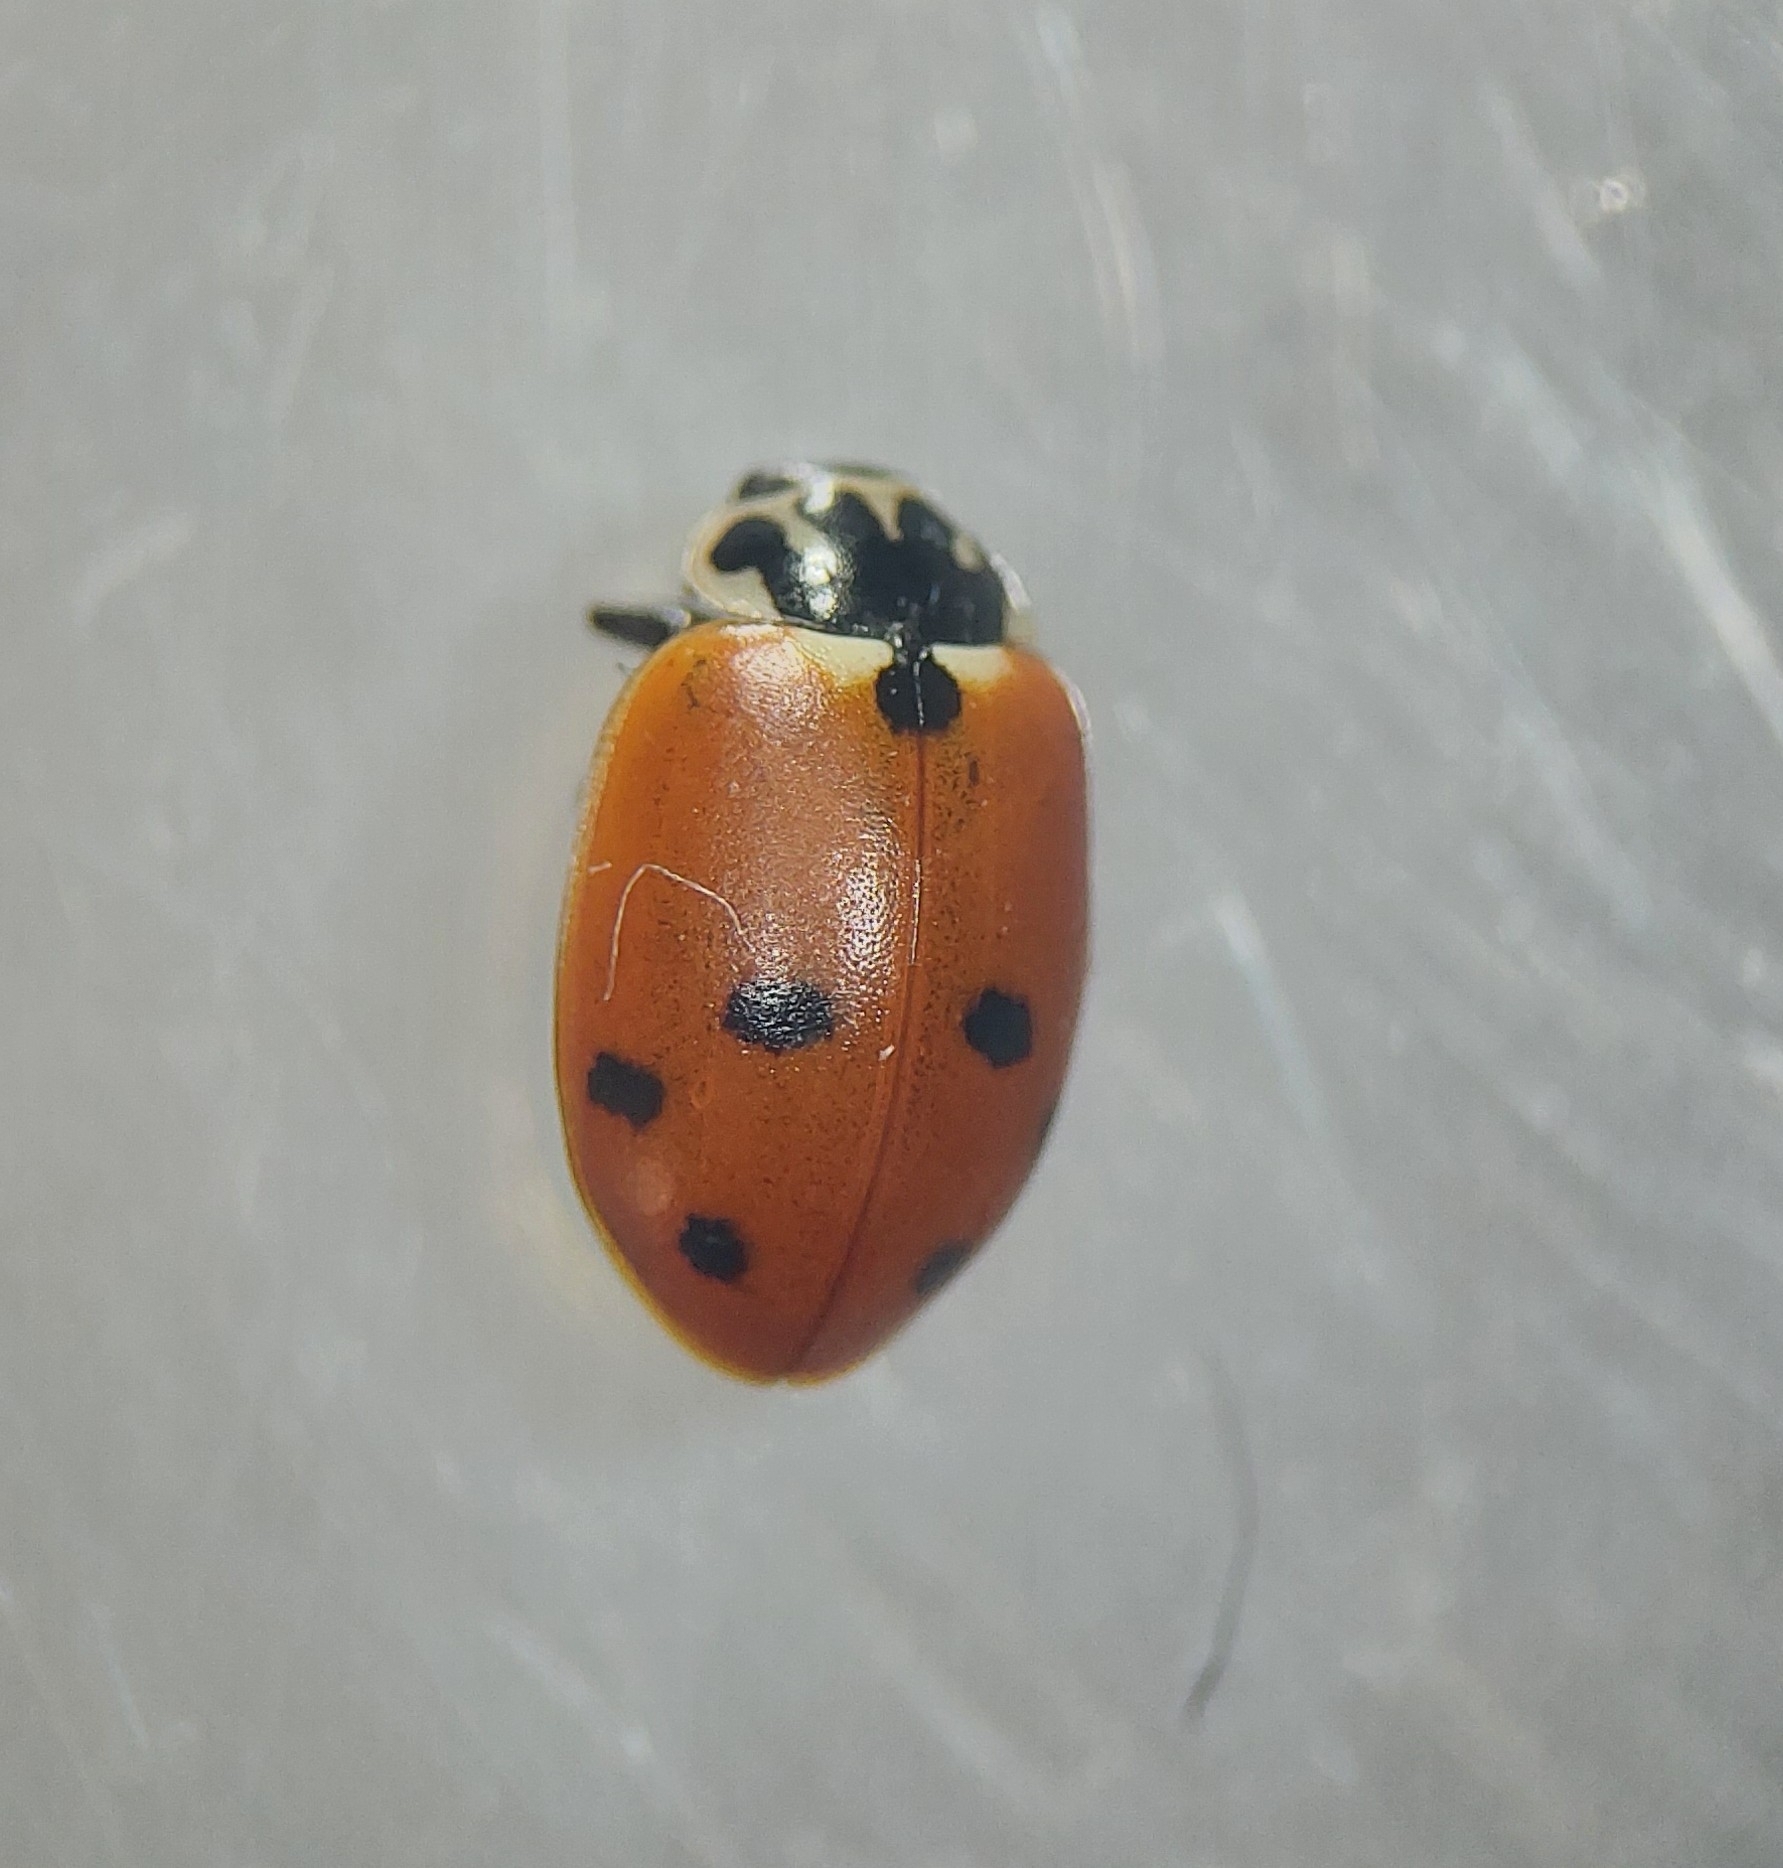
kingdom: Animalia
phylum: Arthropoda
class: Insecta
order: Coleoptera
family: Coccinellidae
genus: Hippodamia
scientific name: Hippodamia variegata
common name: Ladybird beetle
